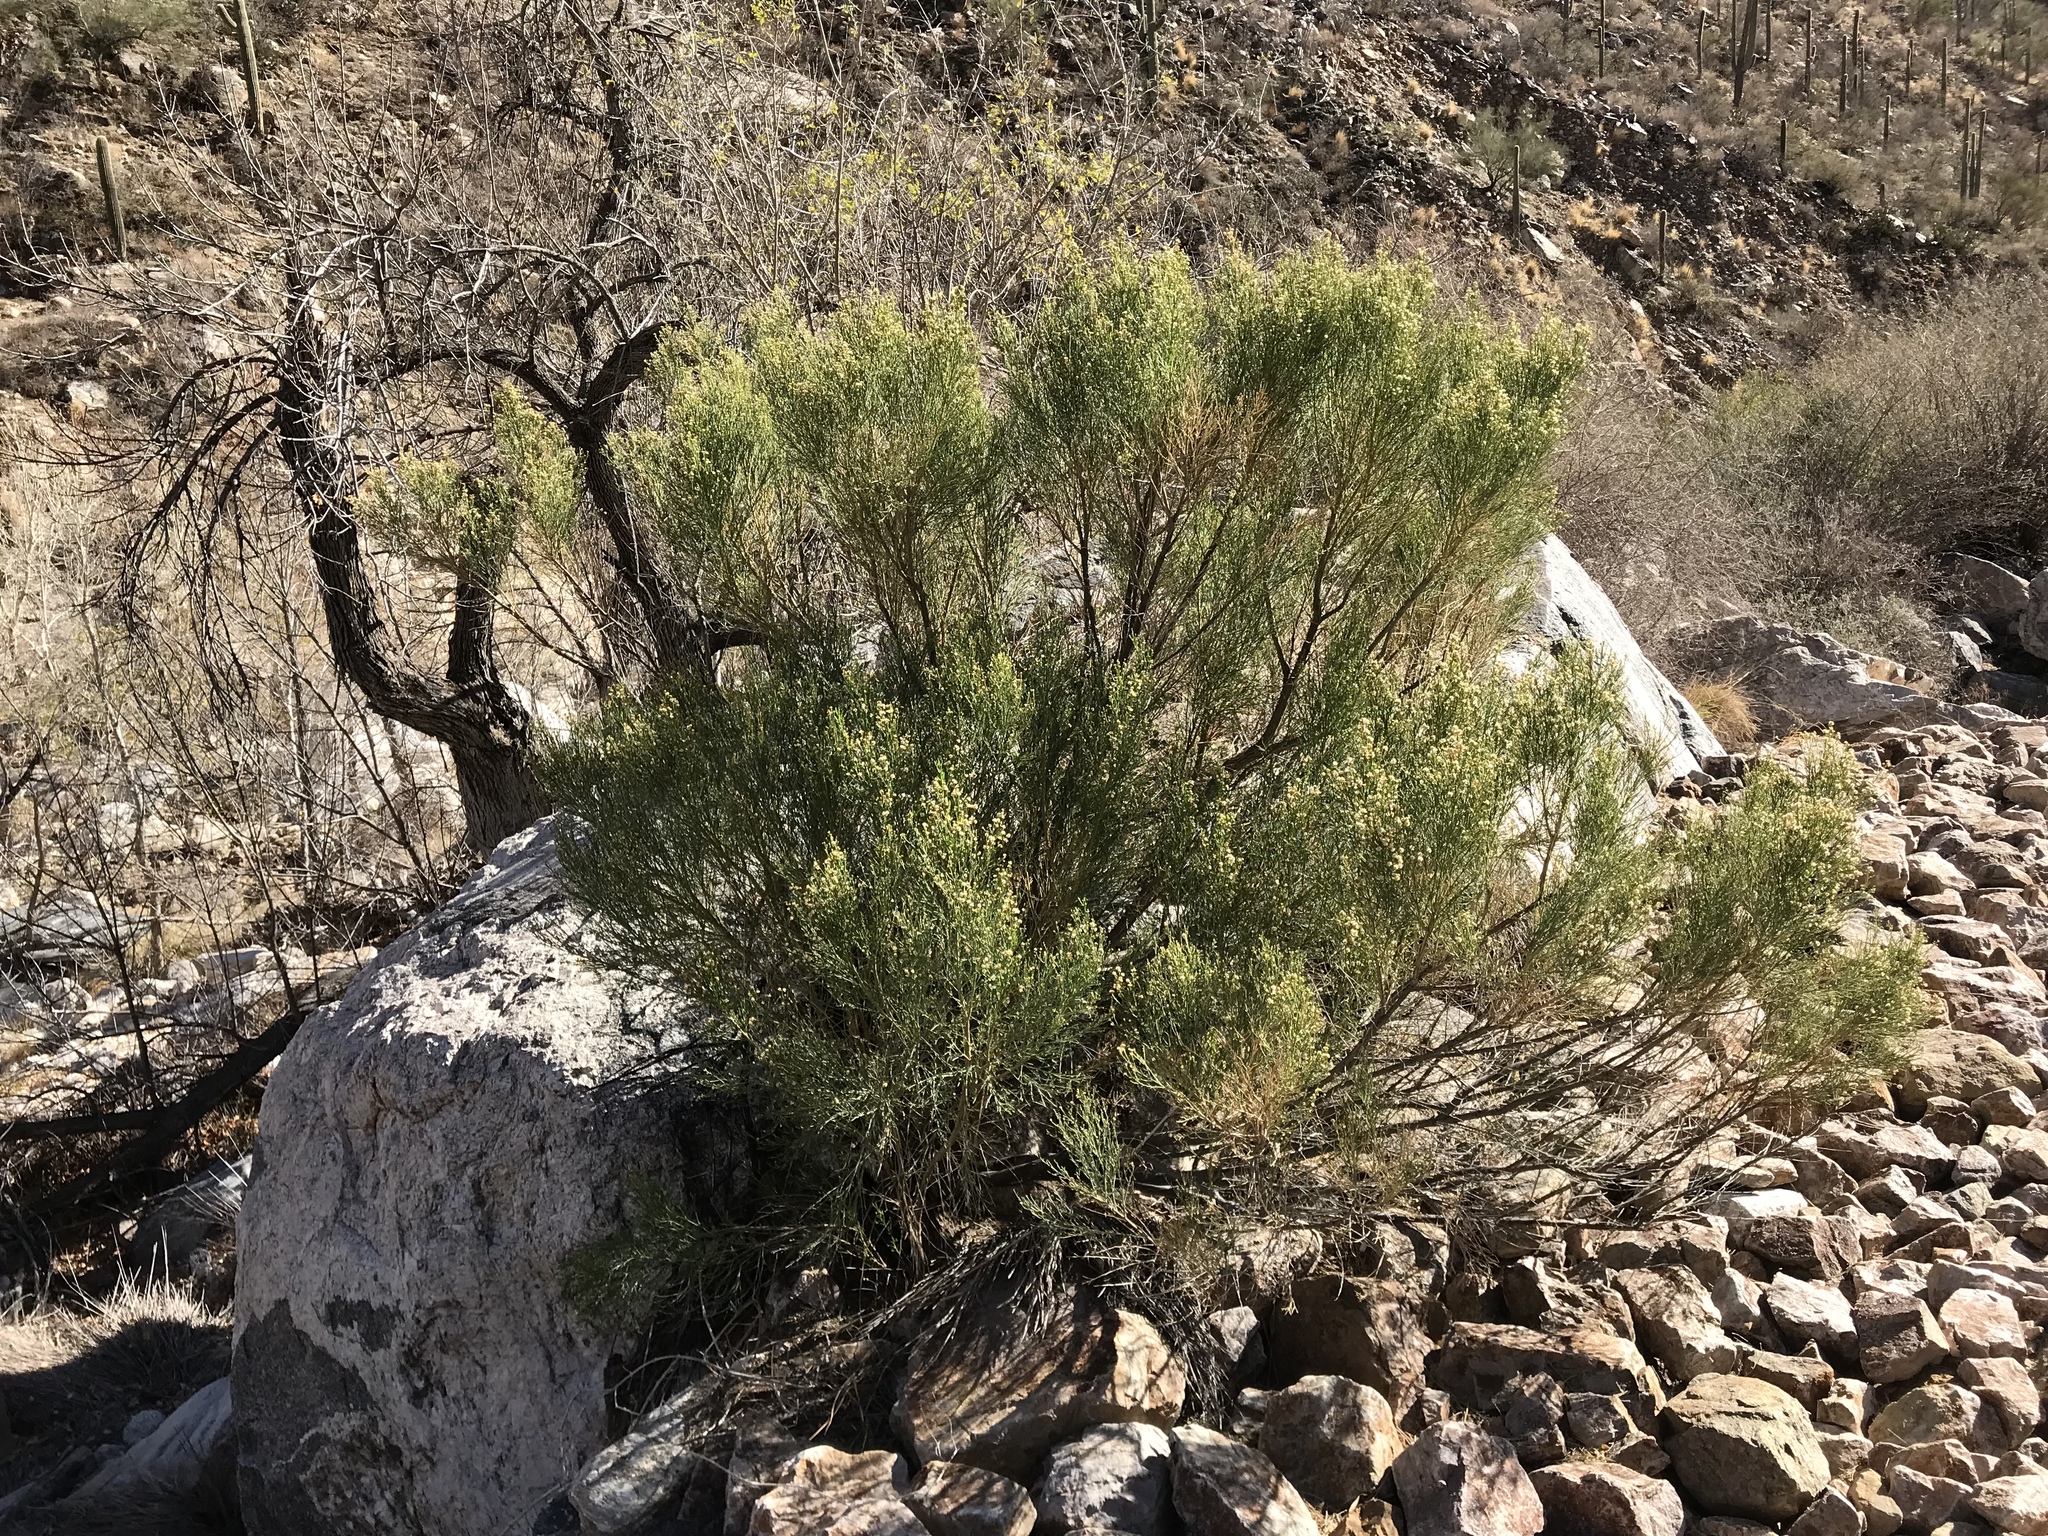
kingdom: Plantae
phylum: Tracheophyta
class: Magnoliopsida
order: Asterales
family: Asteraceae
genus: Baccharis
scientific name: Baccharis sarothroides
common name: Desert-broom
